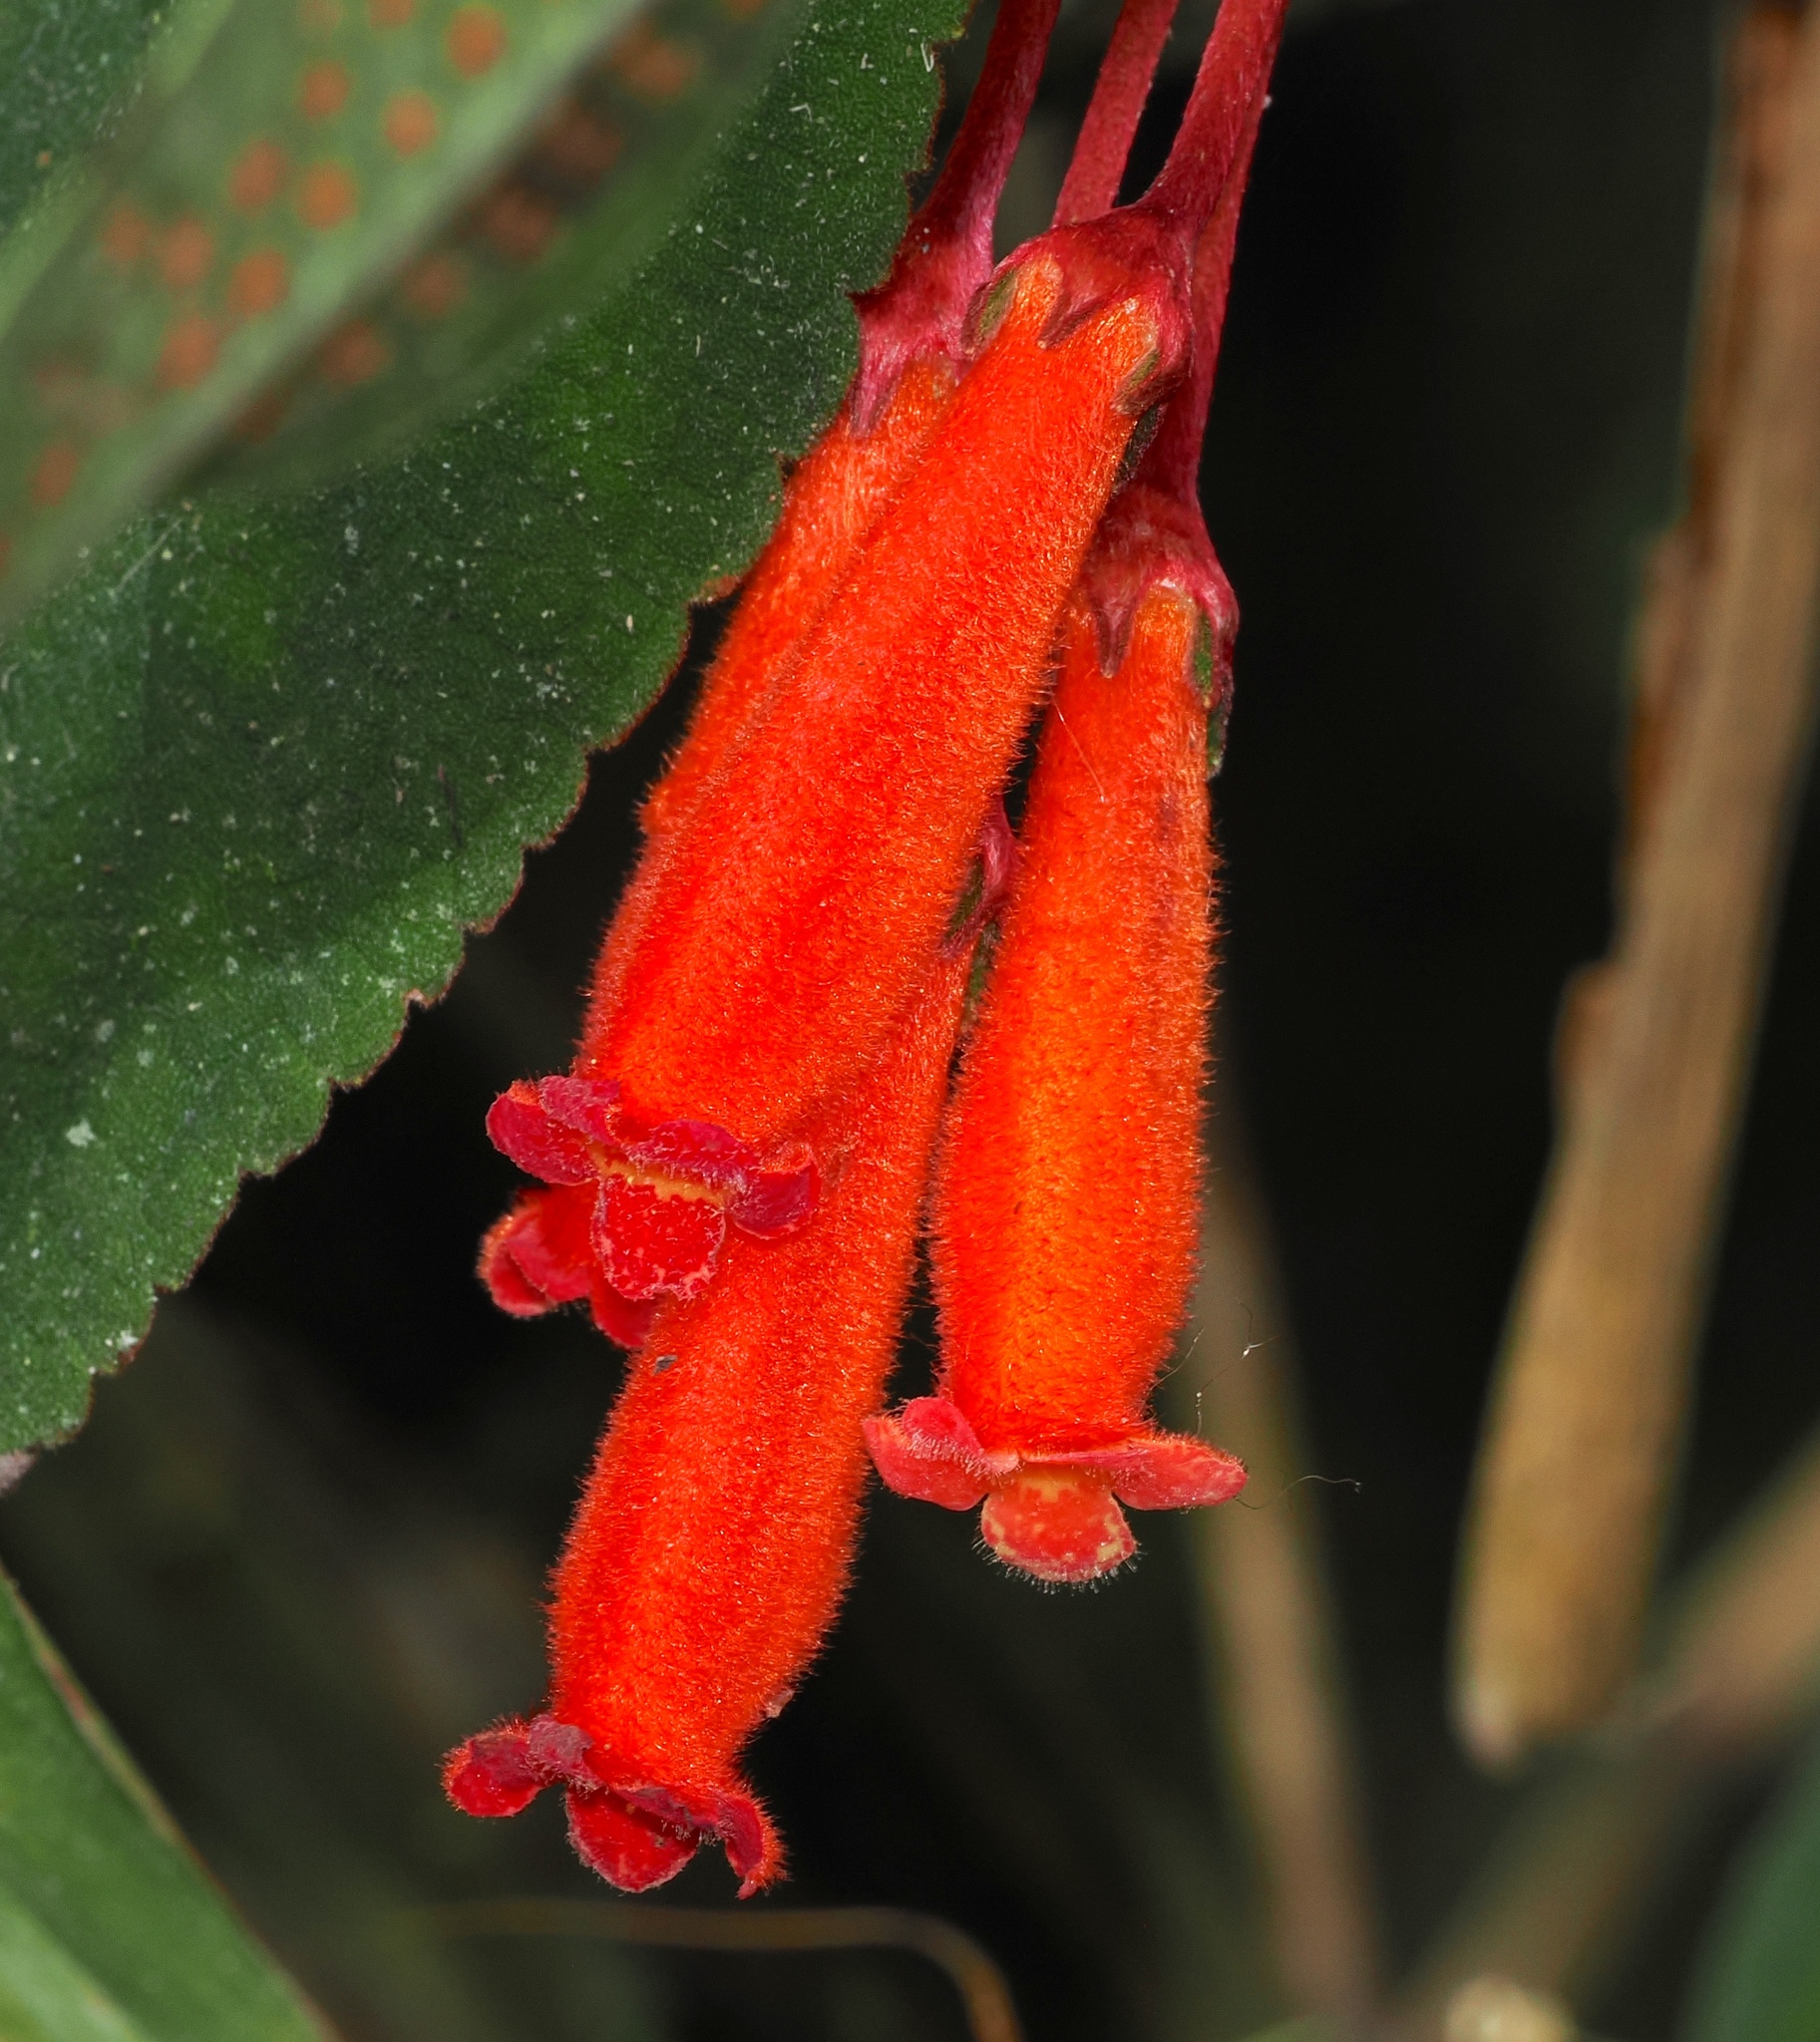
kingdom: Plantae
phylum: Tracheophyta
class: Magnoliopsida
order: Lamiales
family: Gesneriaceae
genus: Kohleria
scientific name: Kohleria trianae
